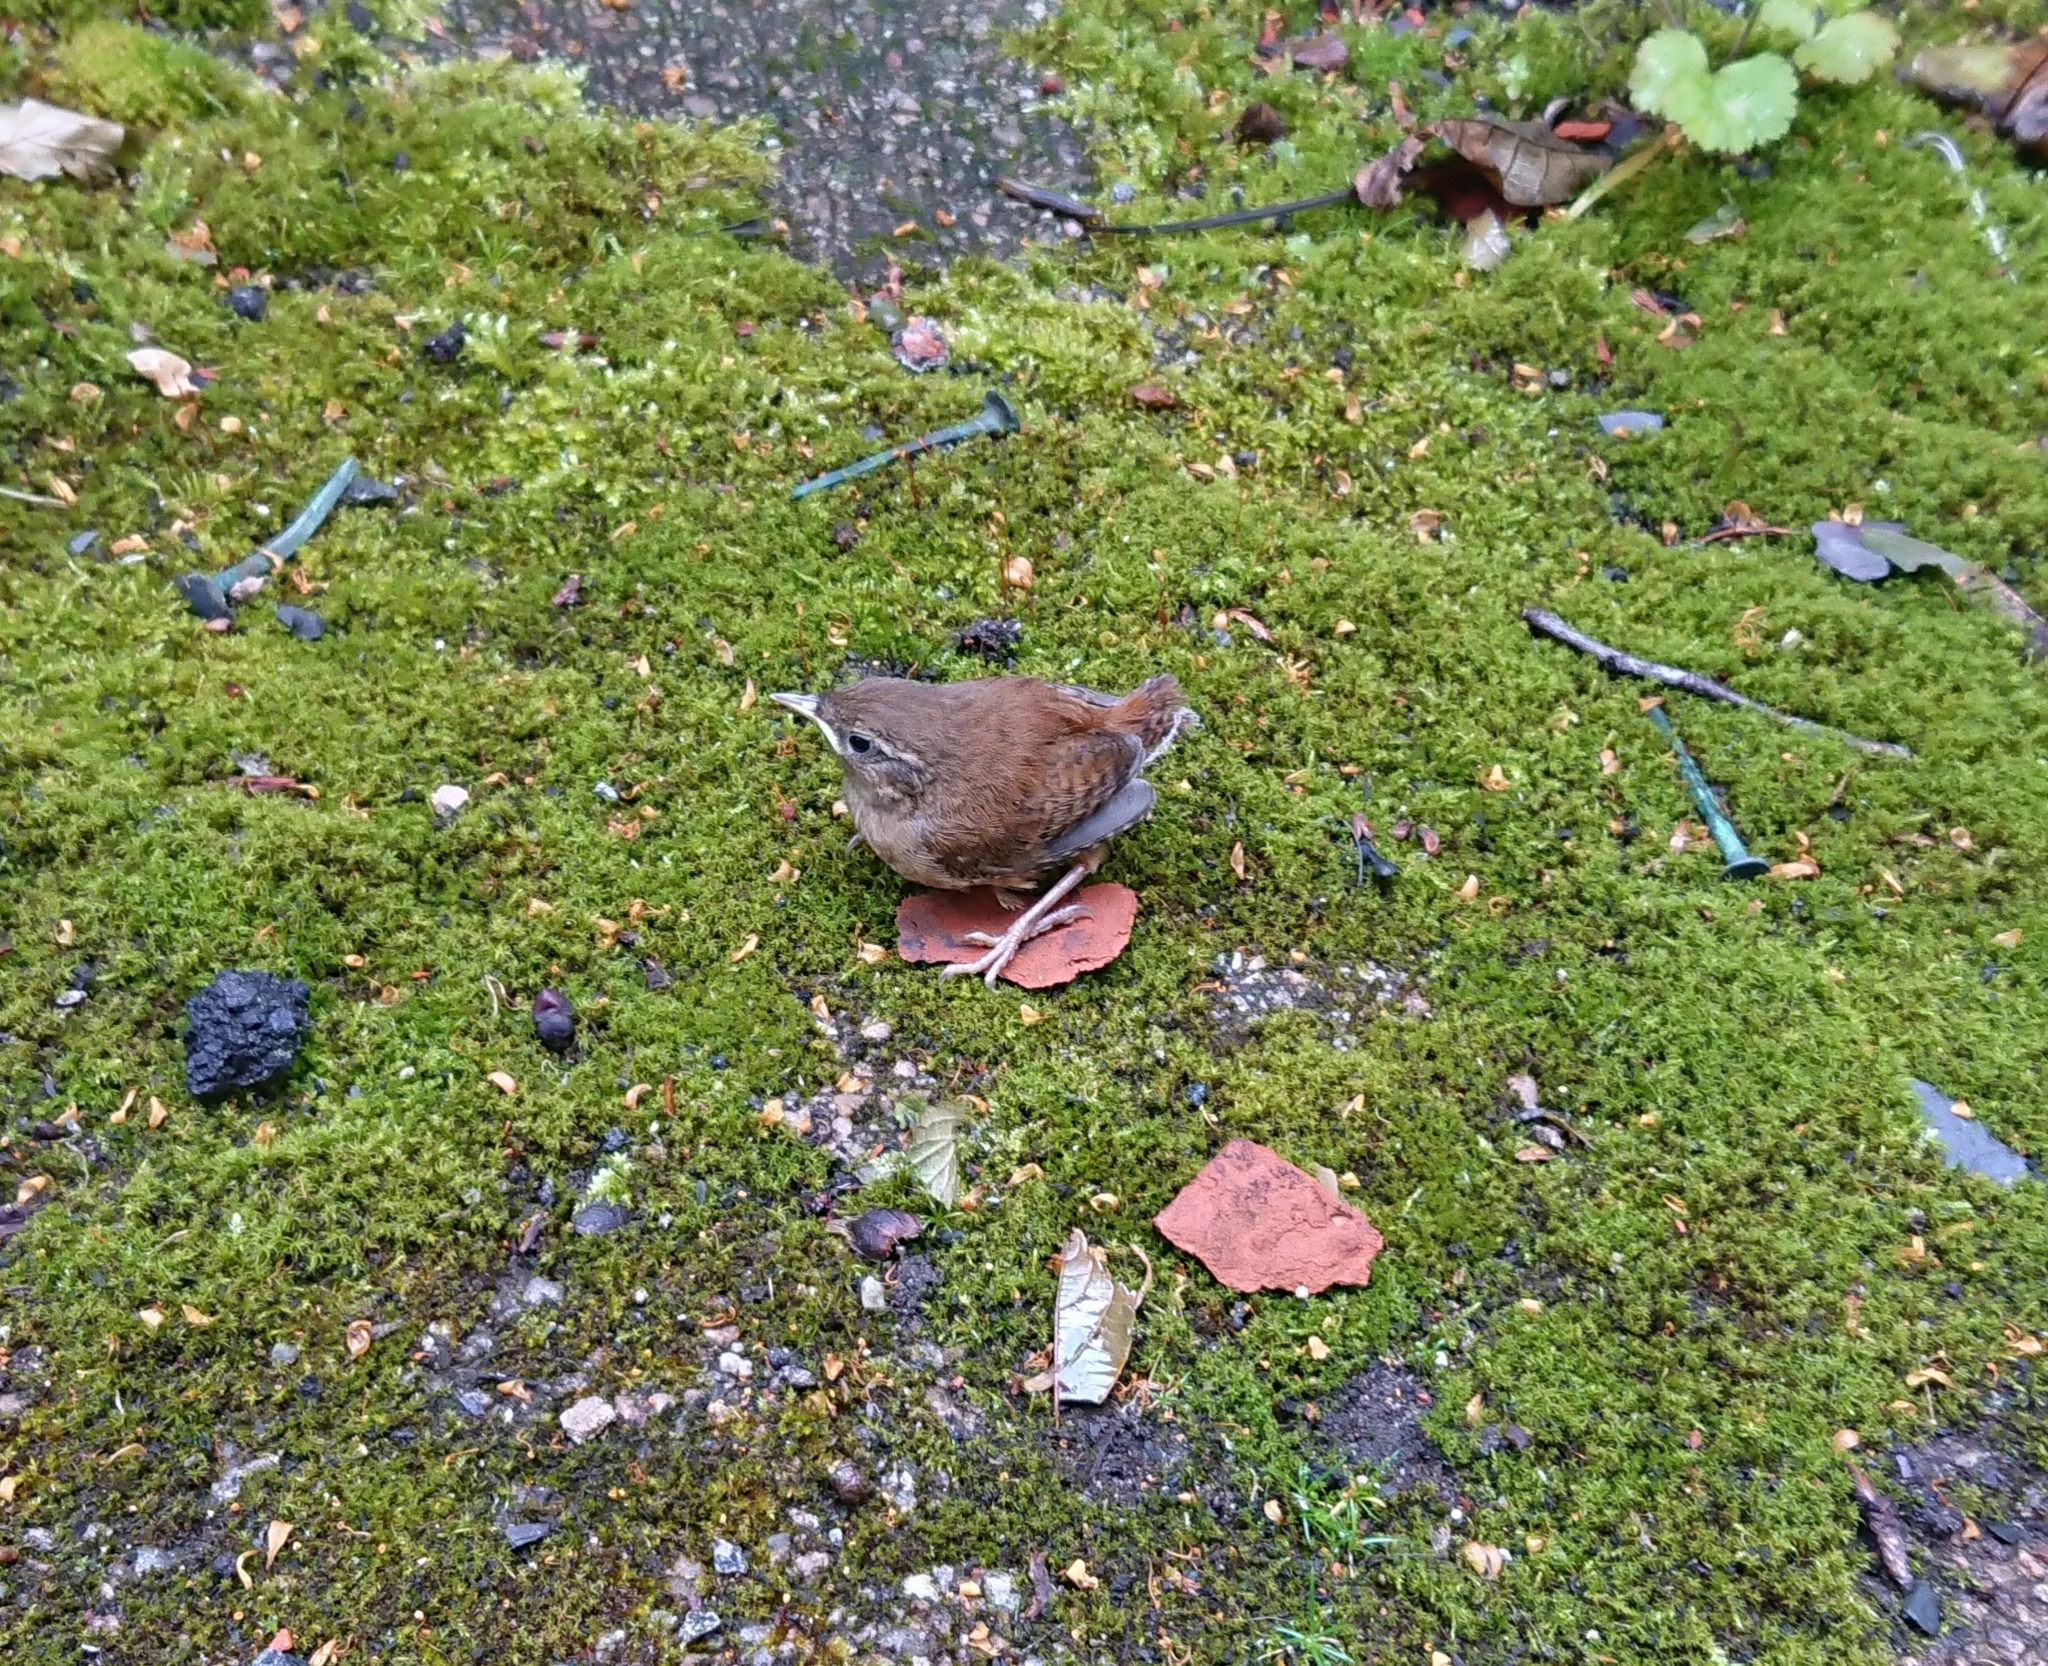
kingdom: Animalia
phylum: Chordata
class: Aves
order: Passeriformes
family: Troglodytidae
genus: Troglodytes
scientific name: Troglodytes troglodytes
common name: Eurasian wren
